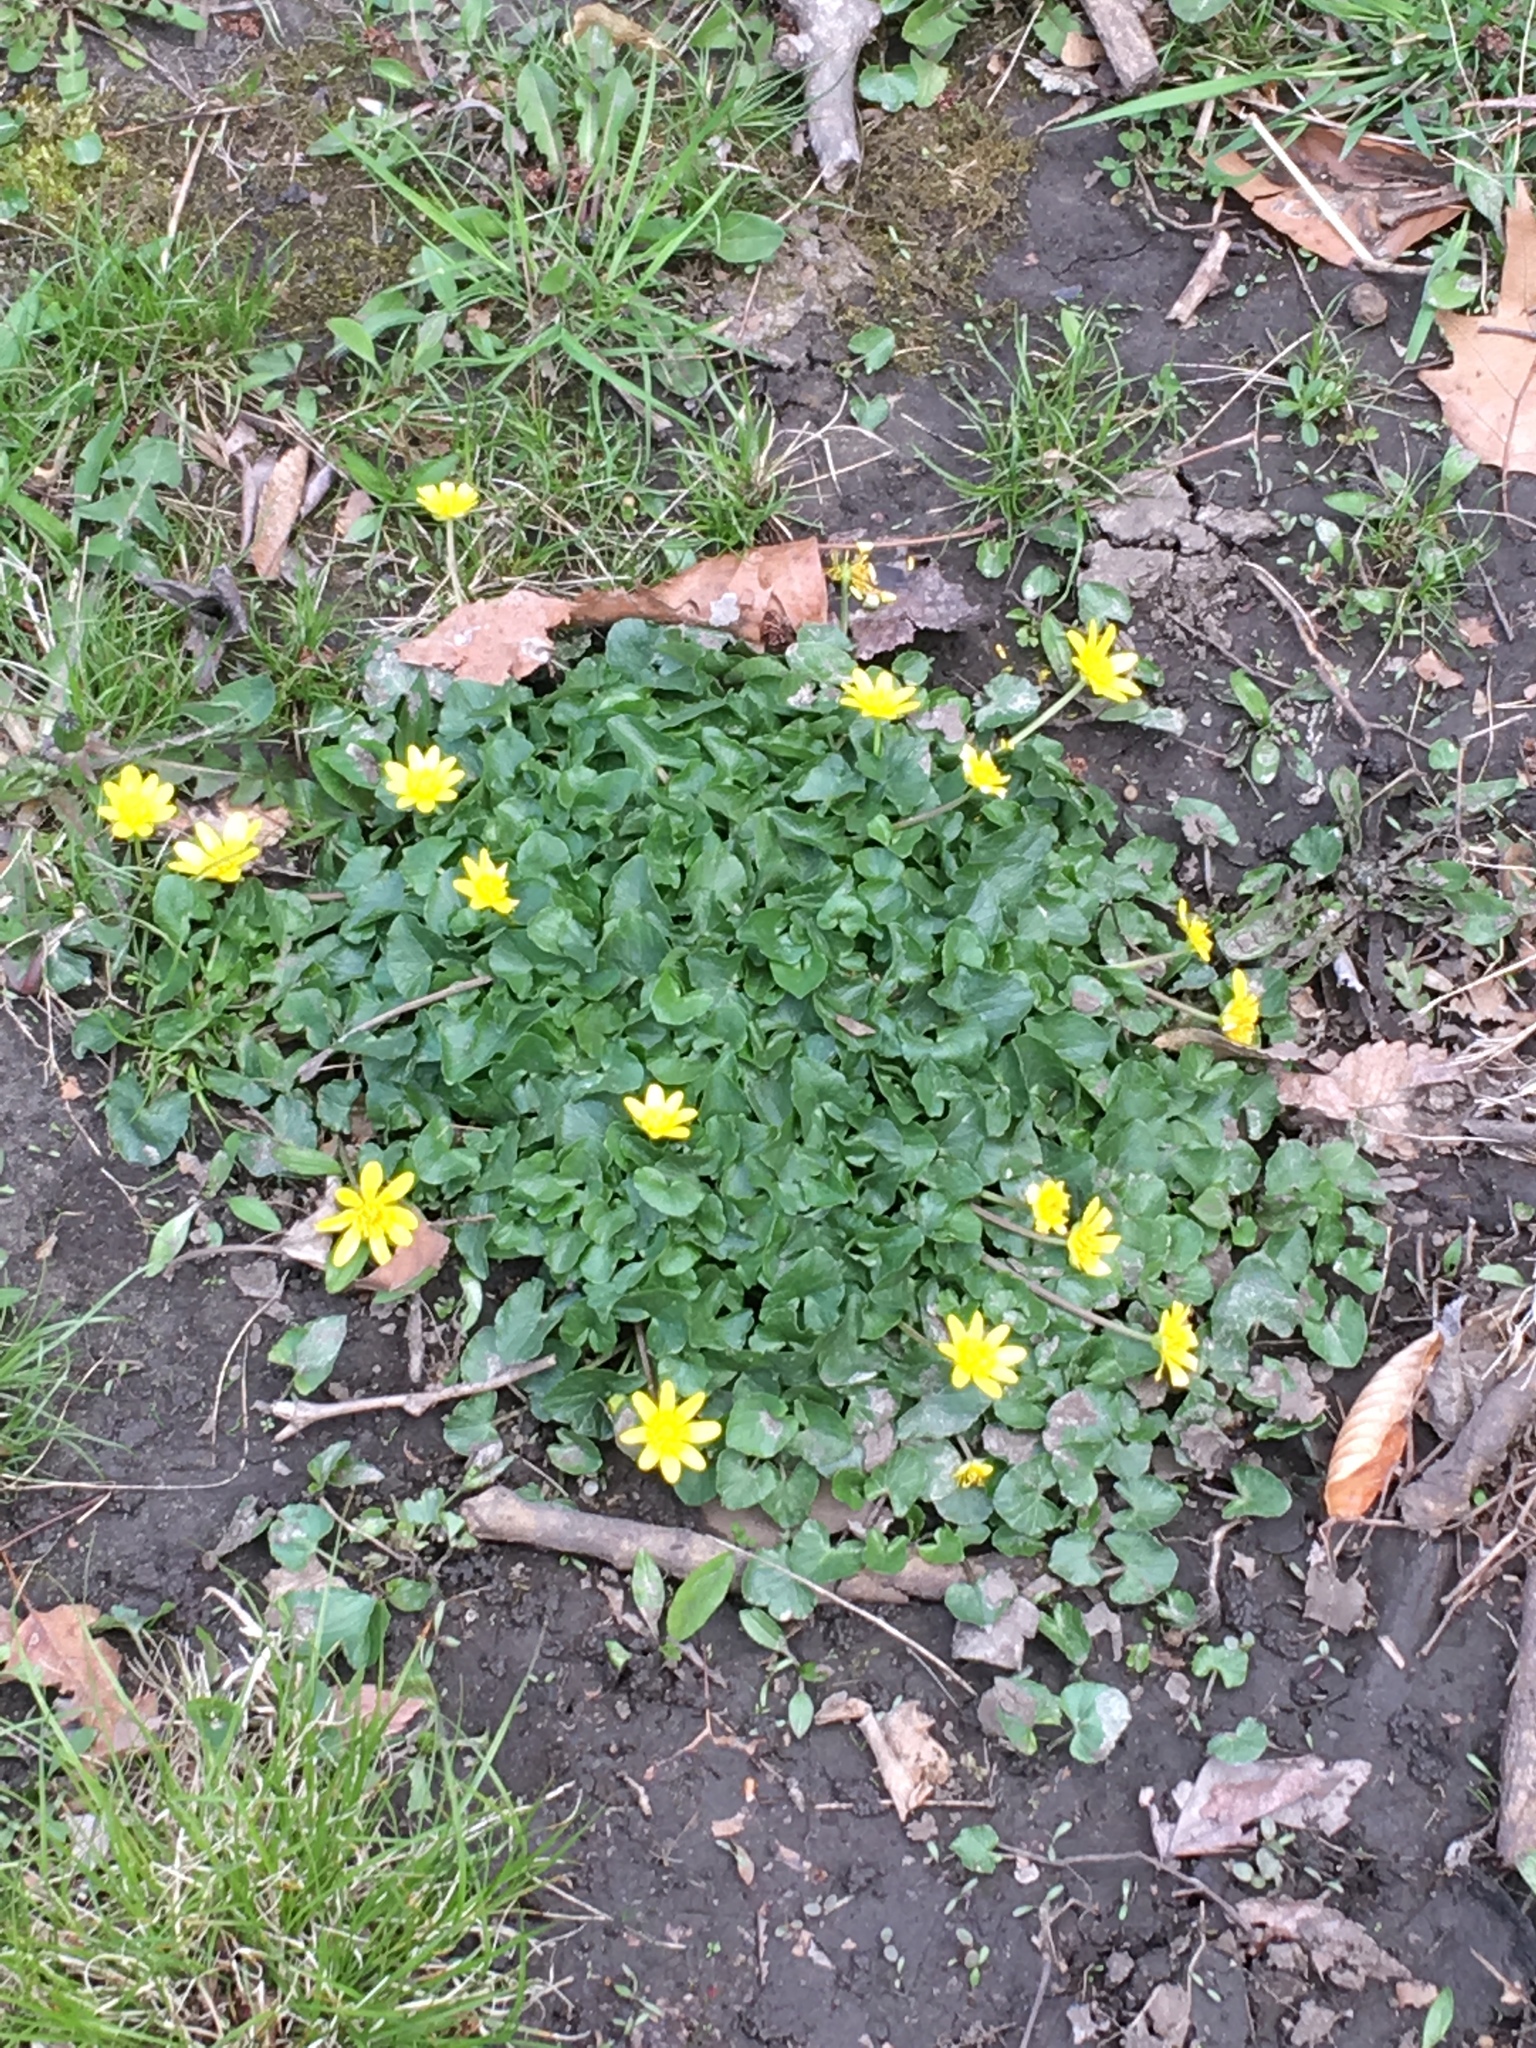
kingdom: Plantae
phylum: Tracheophyta
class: Magnoliopsida
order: Ranunculales
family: Ranunculaceae
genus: Ficaria
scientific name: Ficaria verna
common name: Lesser celandine
